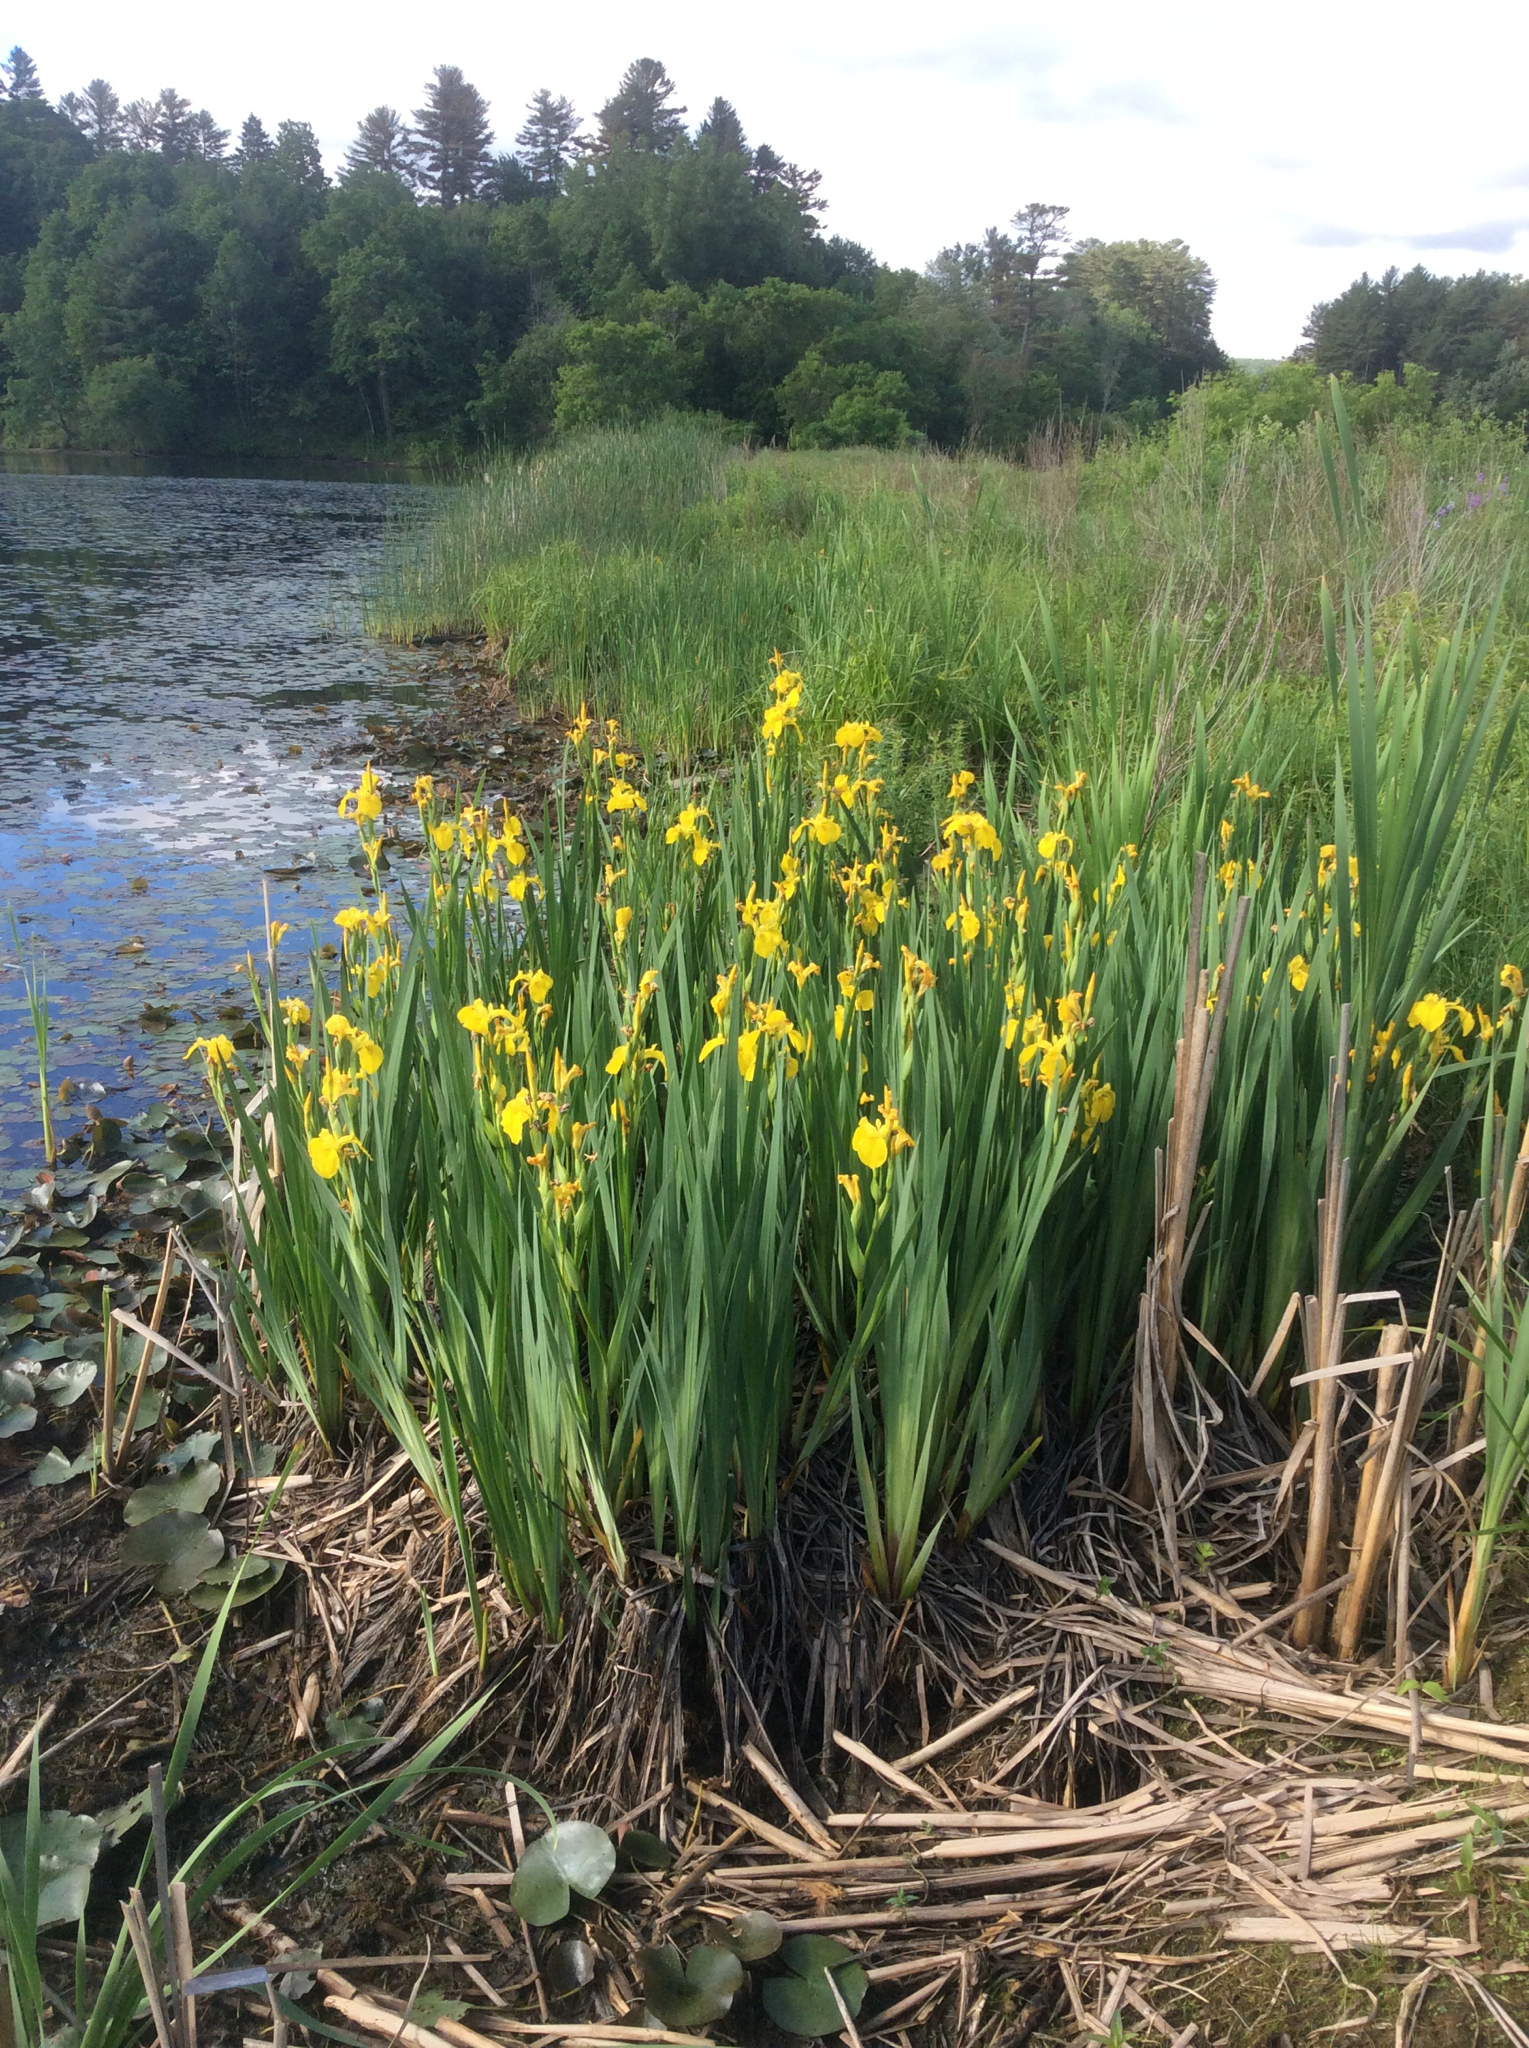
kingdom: Plantae
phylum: Tracheophyta
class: Liliopsida
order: Asparagales
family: Iridaceae
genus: Iris
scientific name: Iris pseudacorus
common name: Yellow flag
